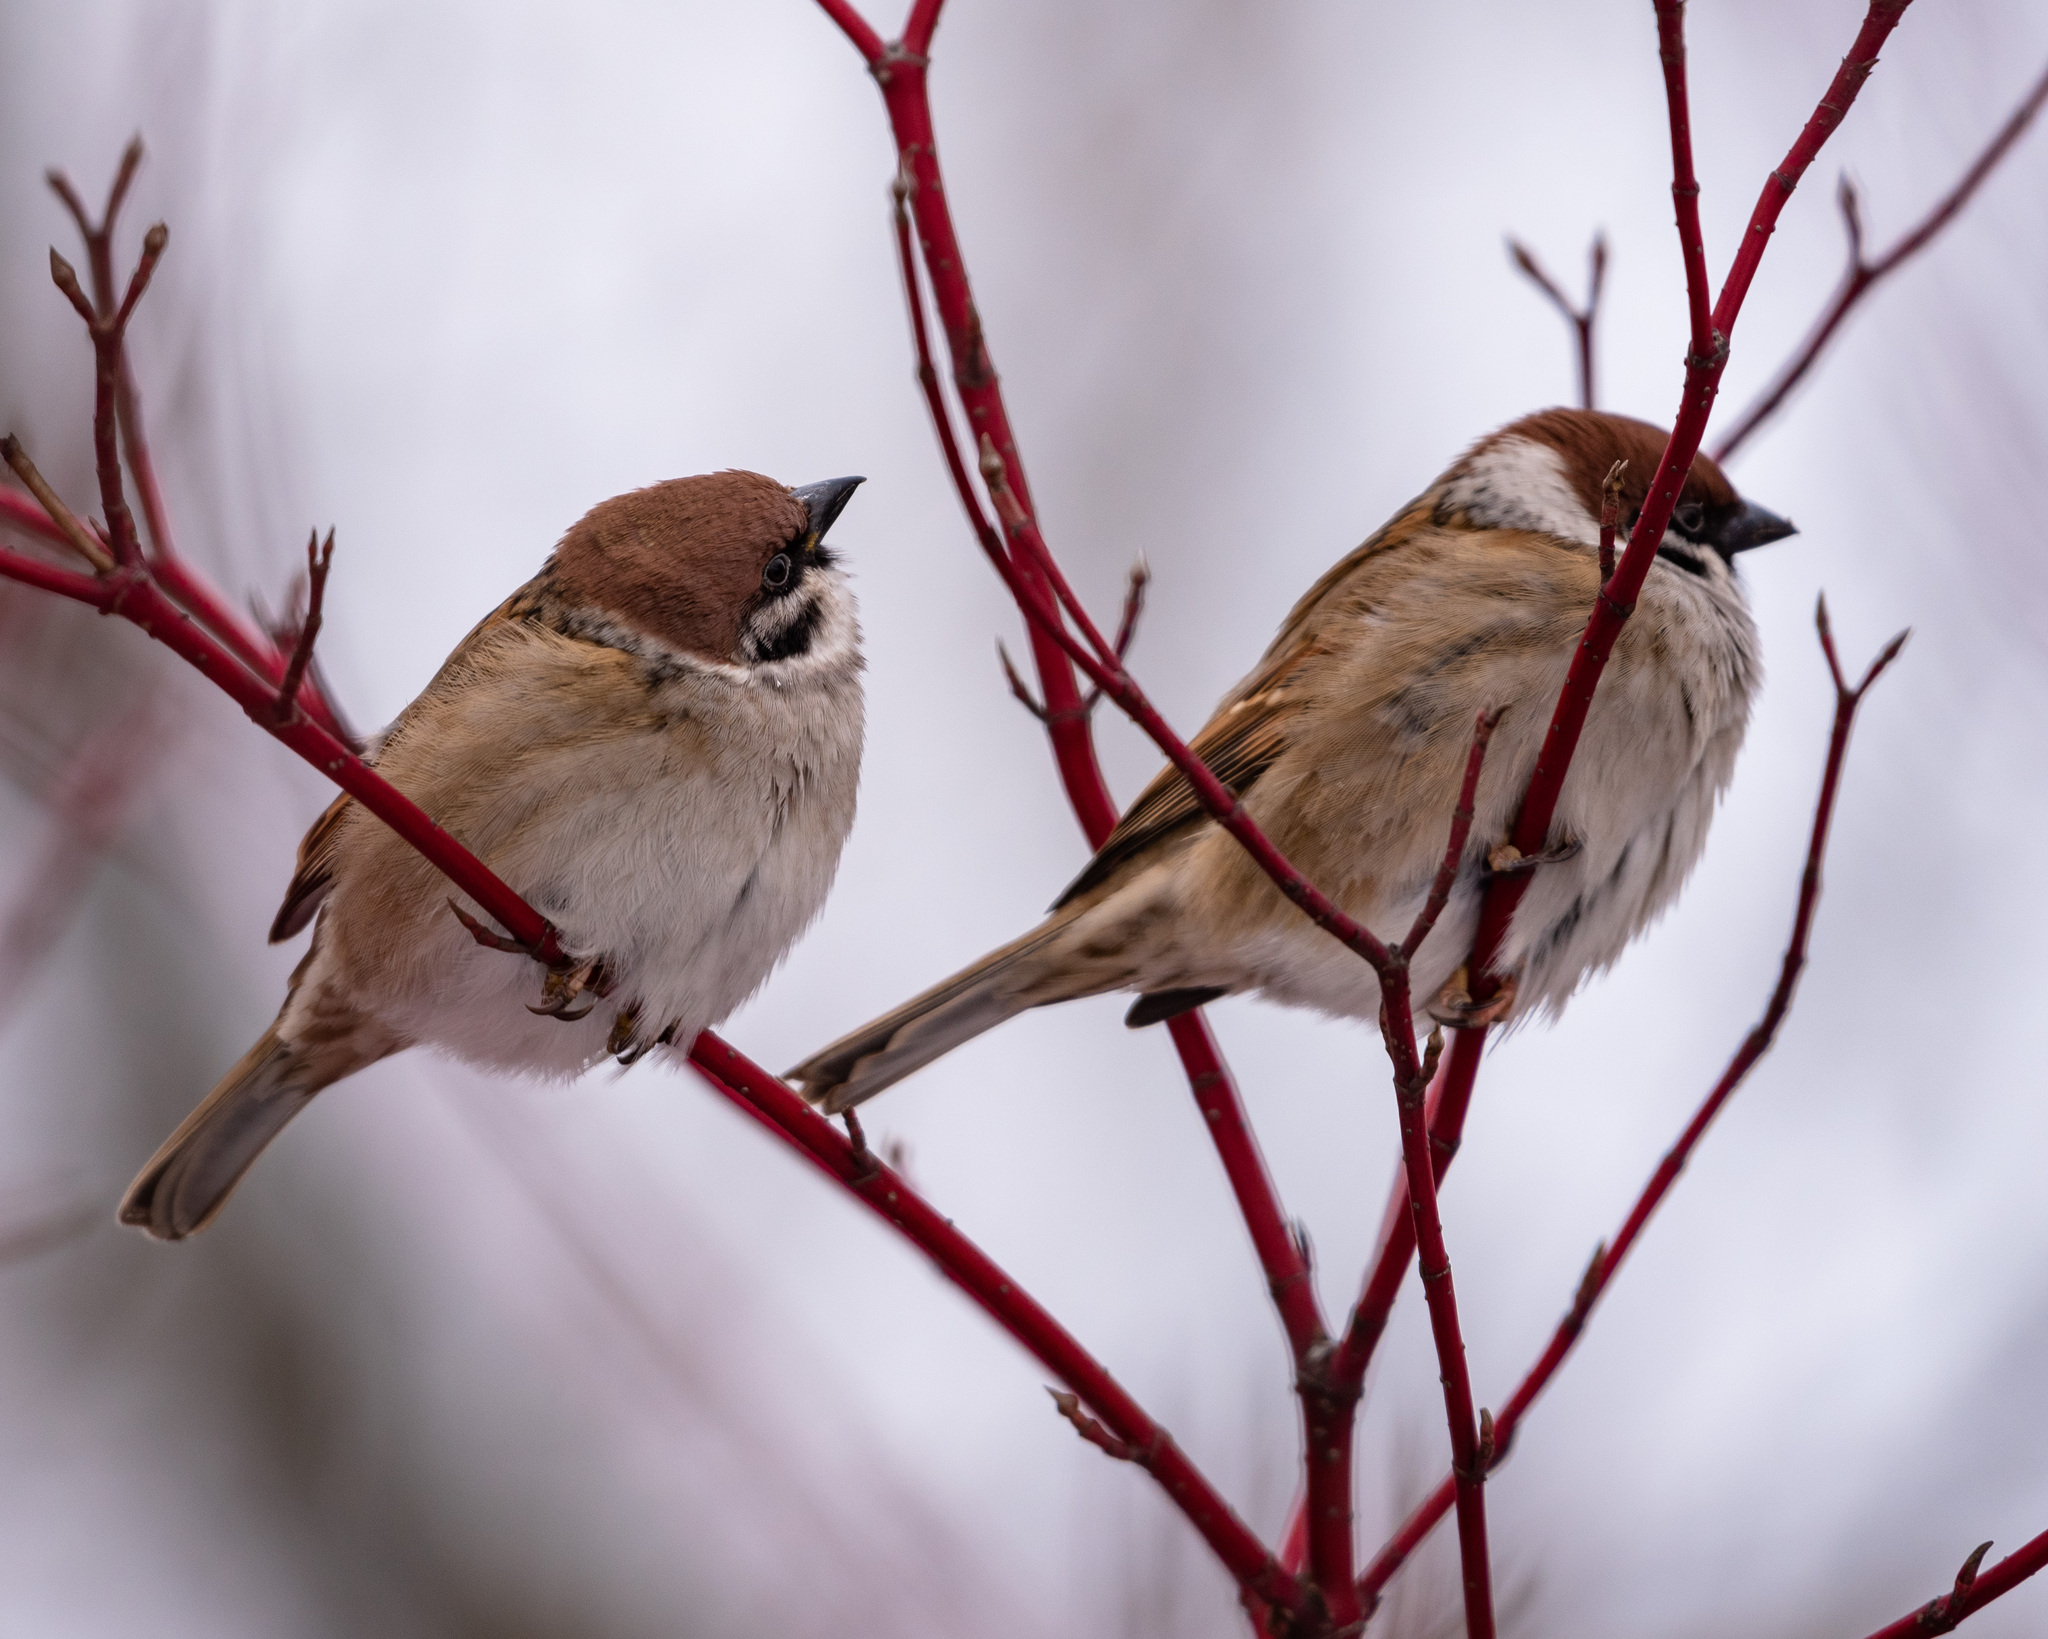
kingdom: Animalia
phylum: Chordata
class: Aves
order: Passeriformes
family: Passeridae
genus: Passer
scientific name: Passer montanus
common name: Eurasian tree sparrow
